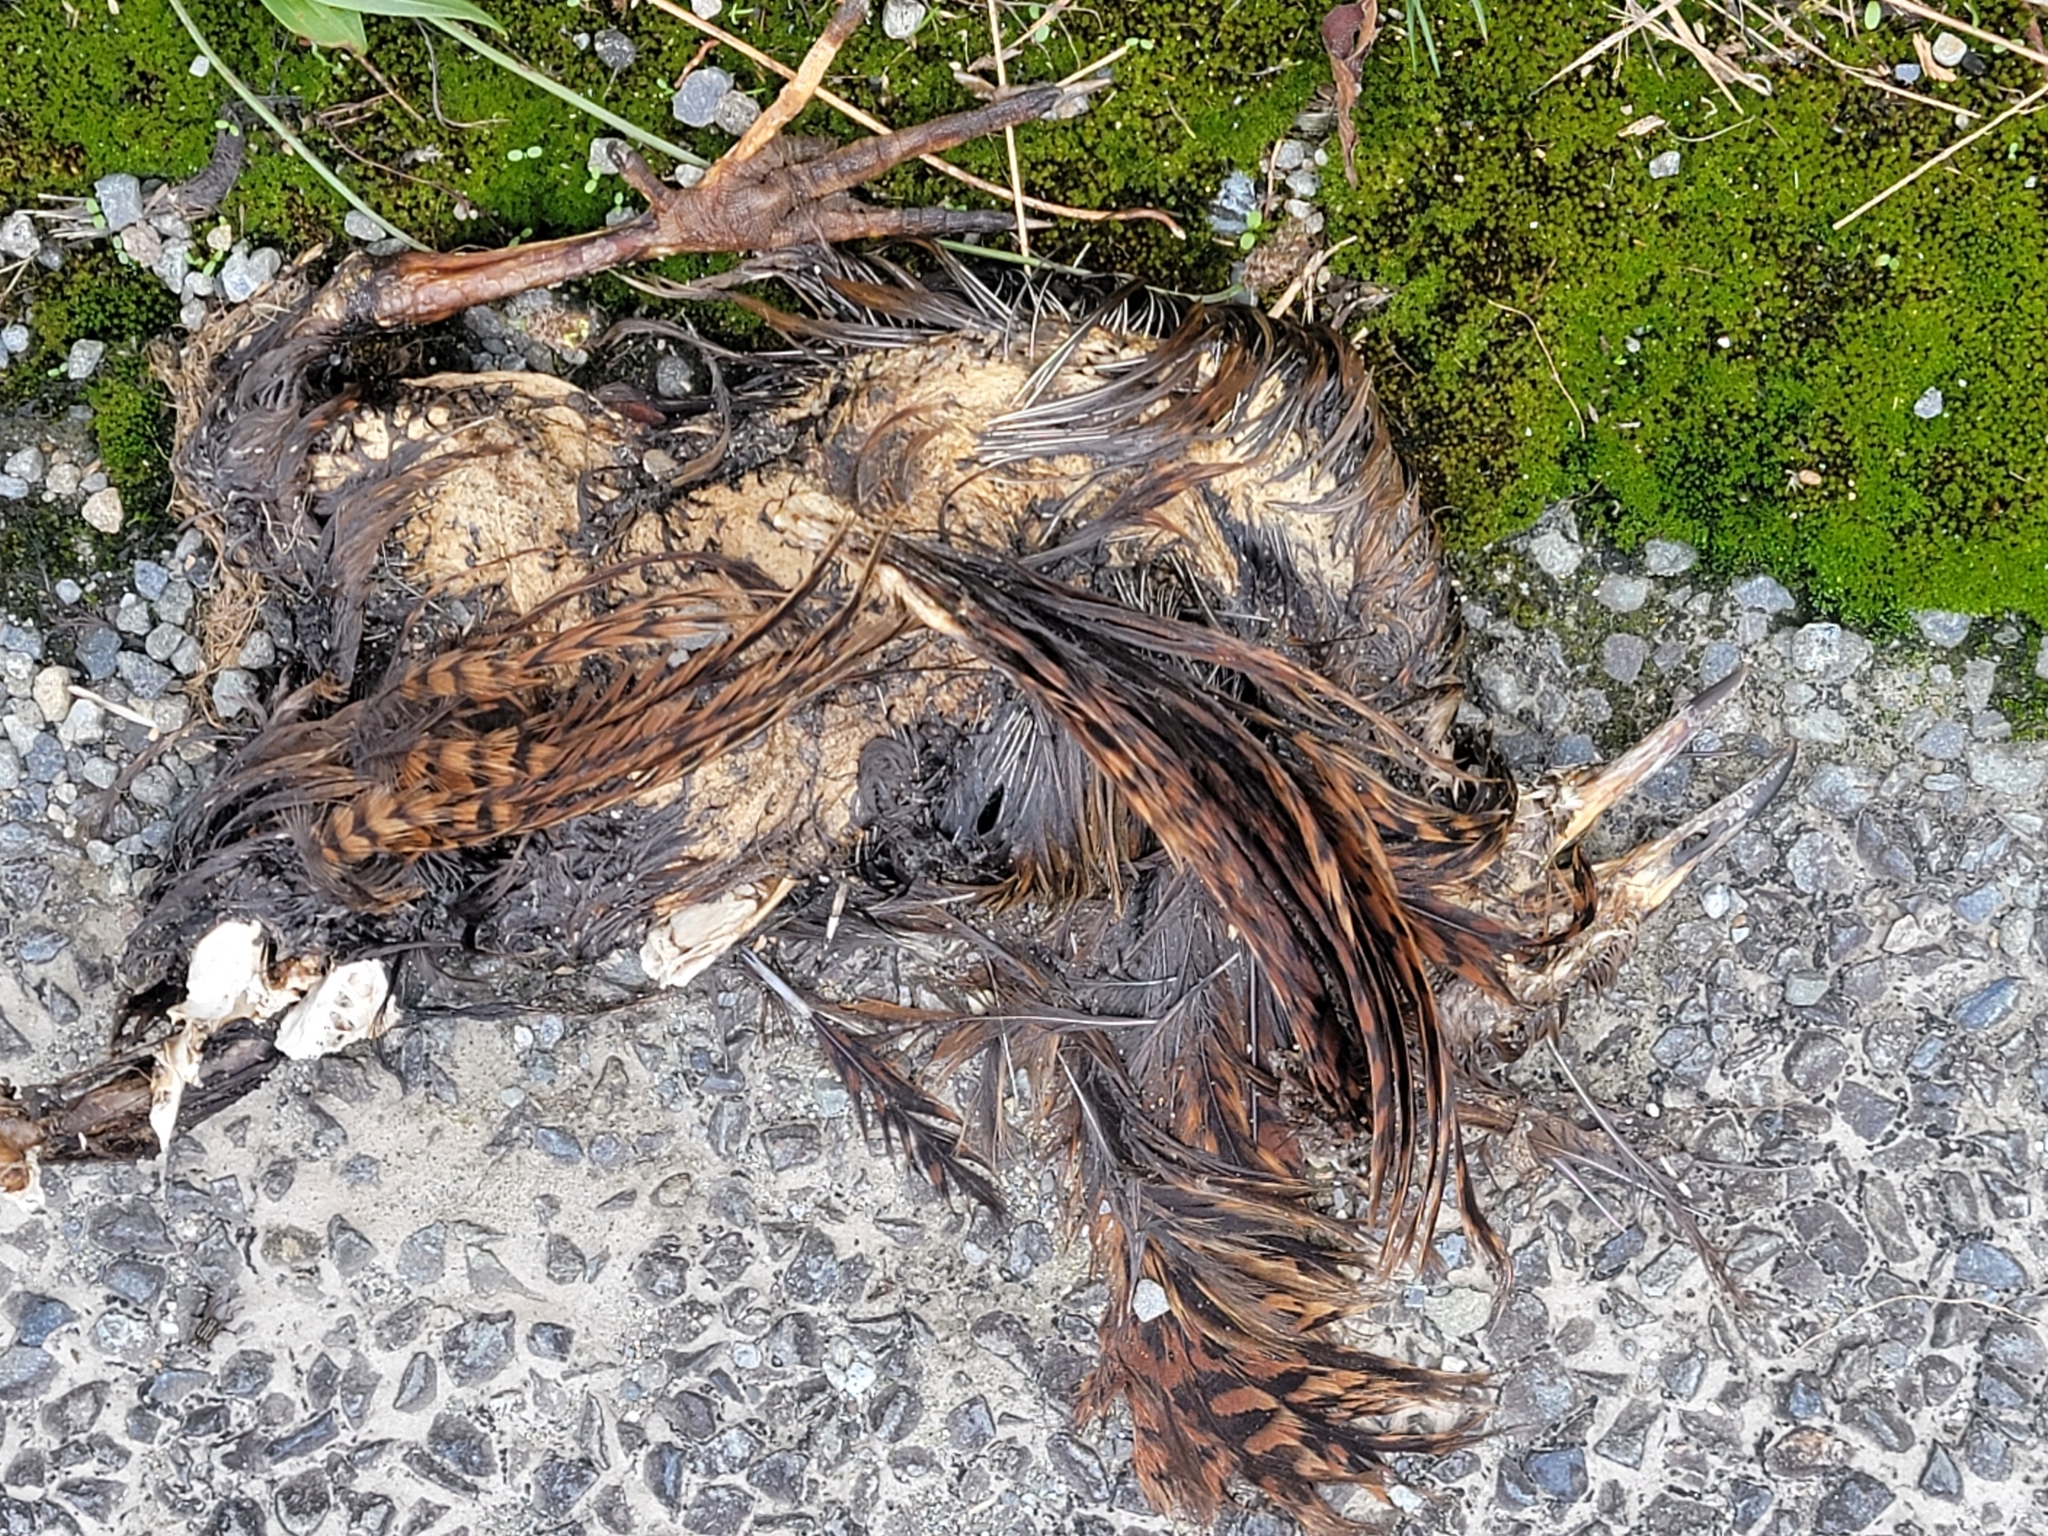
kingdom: Animalia
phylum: Chordata
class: Aves
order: Gruiformes
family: Rallidae
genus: Gallirallus
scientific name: Gallirallus australis
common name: Weka
